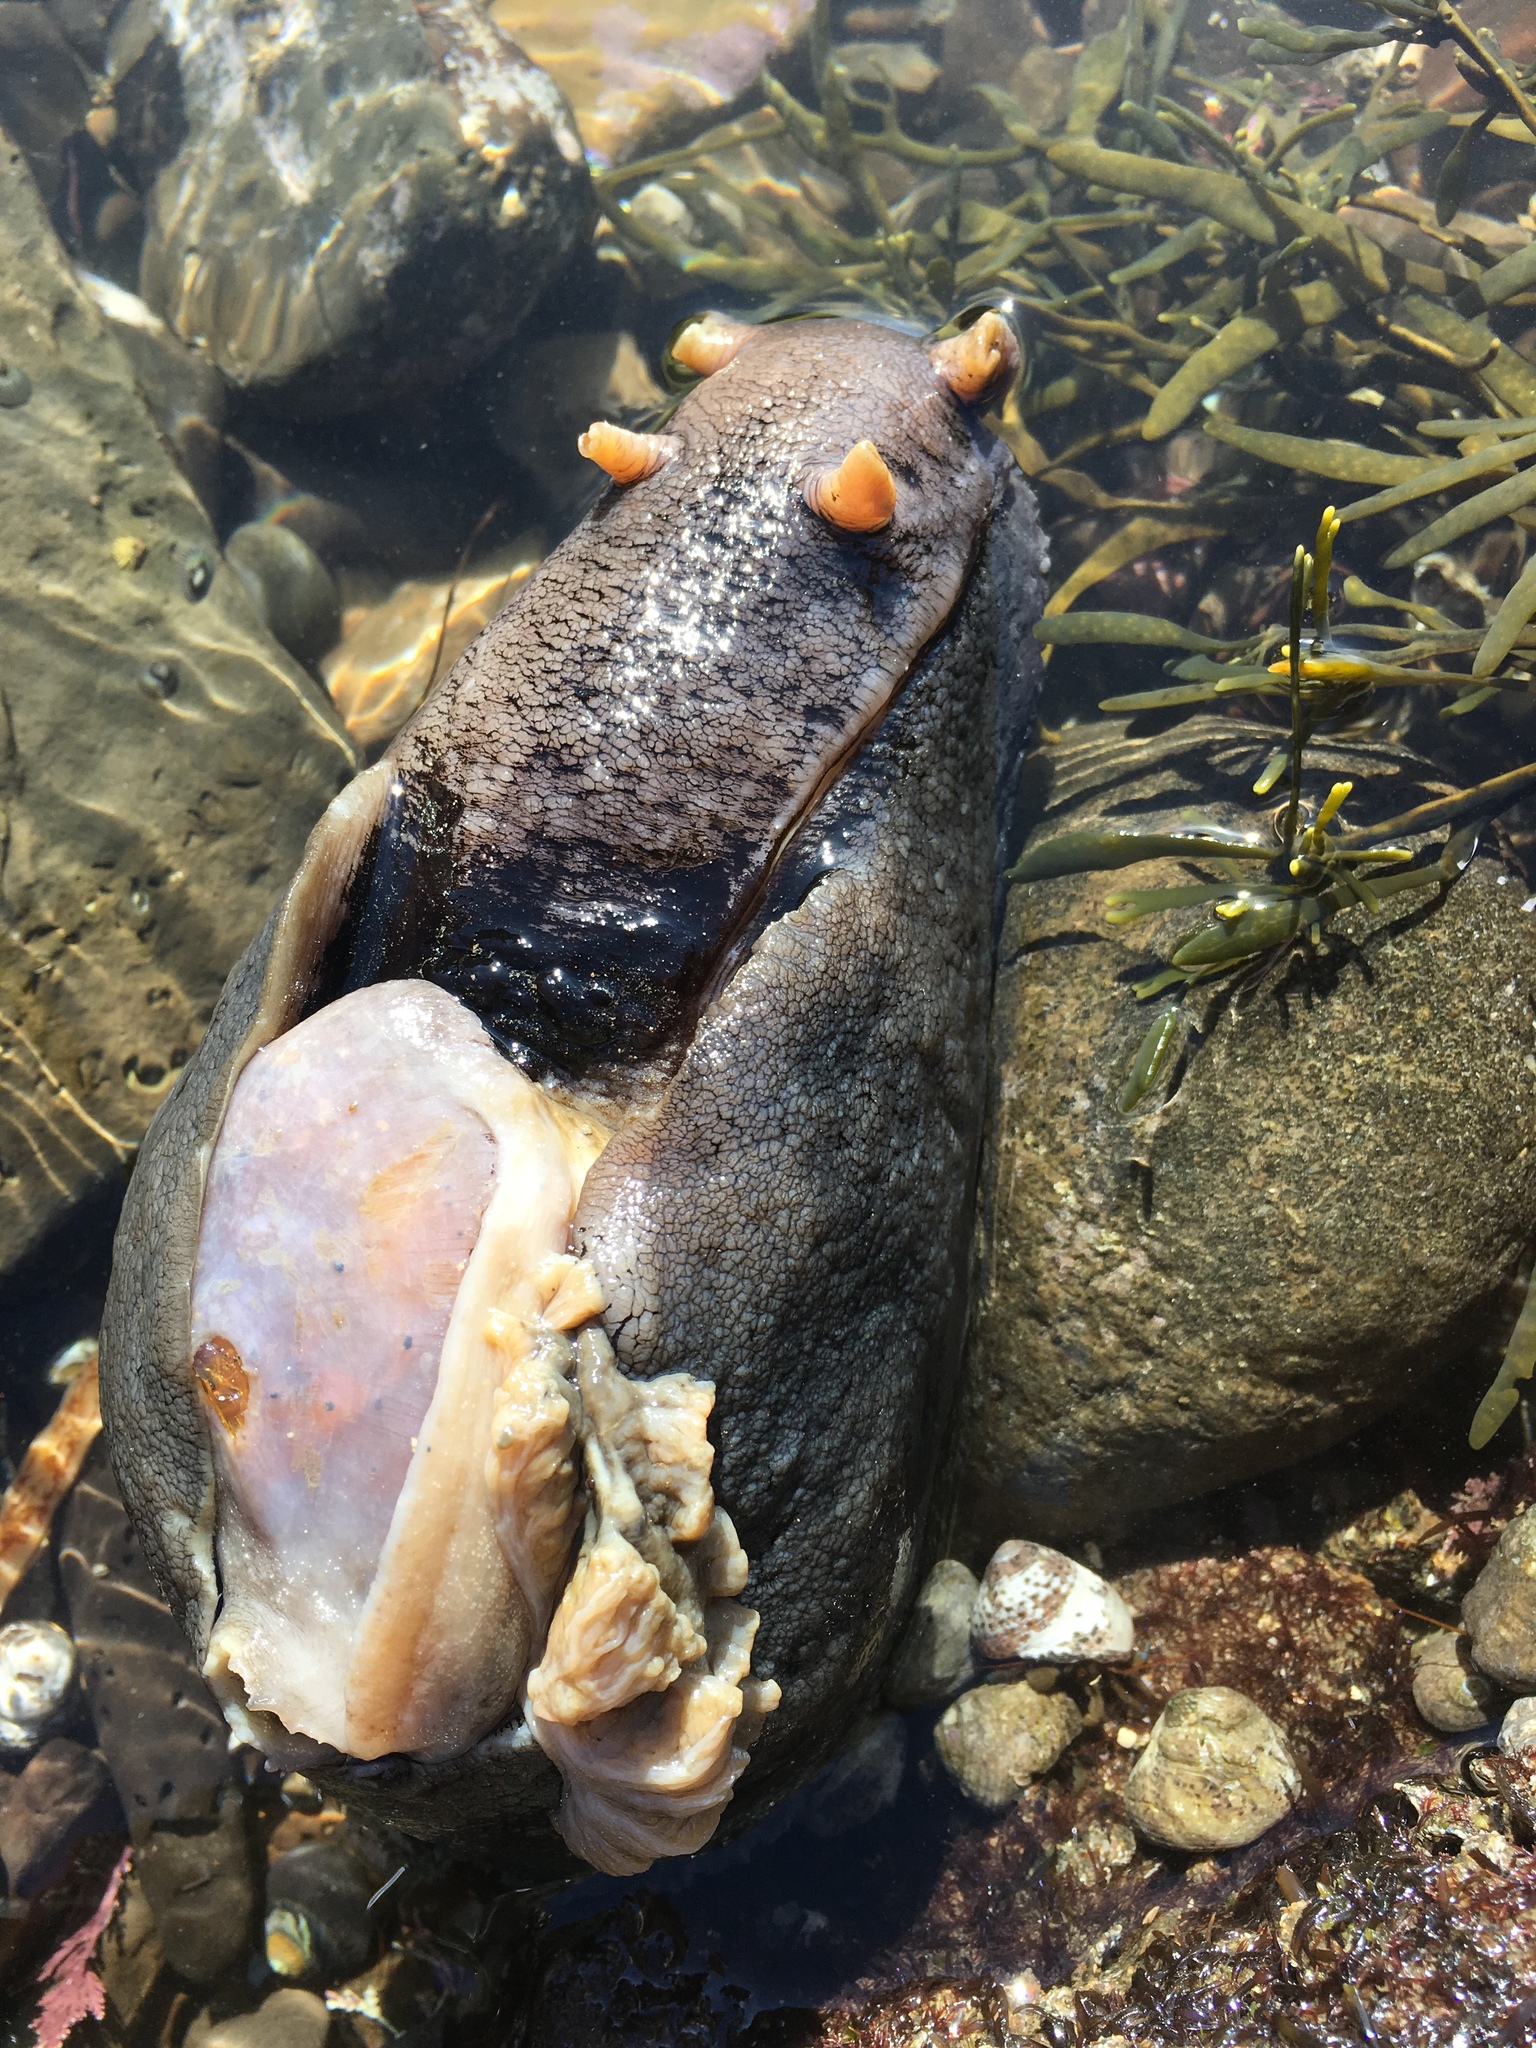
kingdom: Animalia
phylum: Mollusca
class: Gastropoda
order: Aplysiida
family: Aplysiidae
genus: Aplysia
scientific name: Aplysia vaccaria
